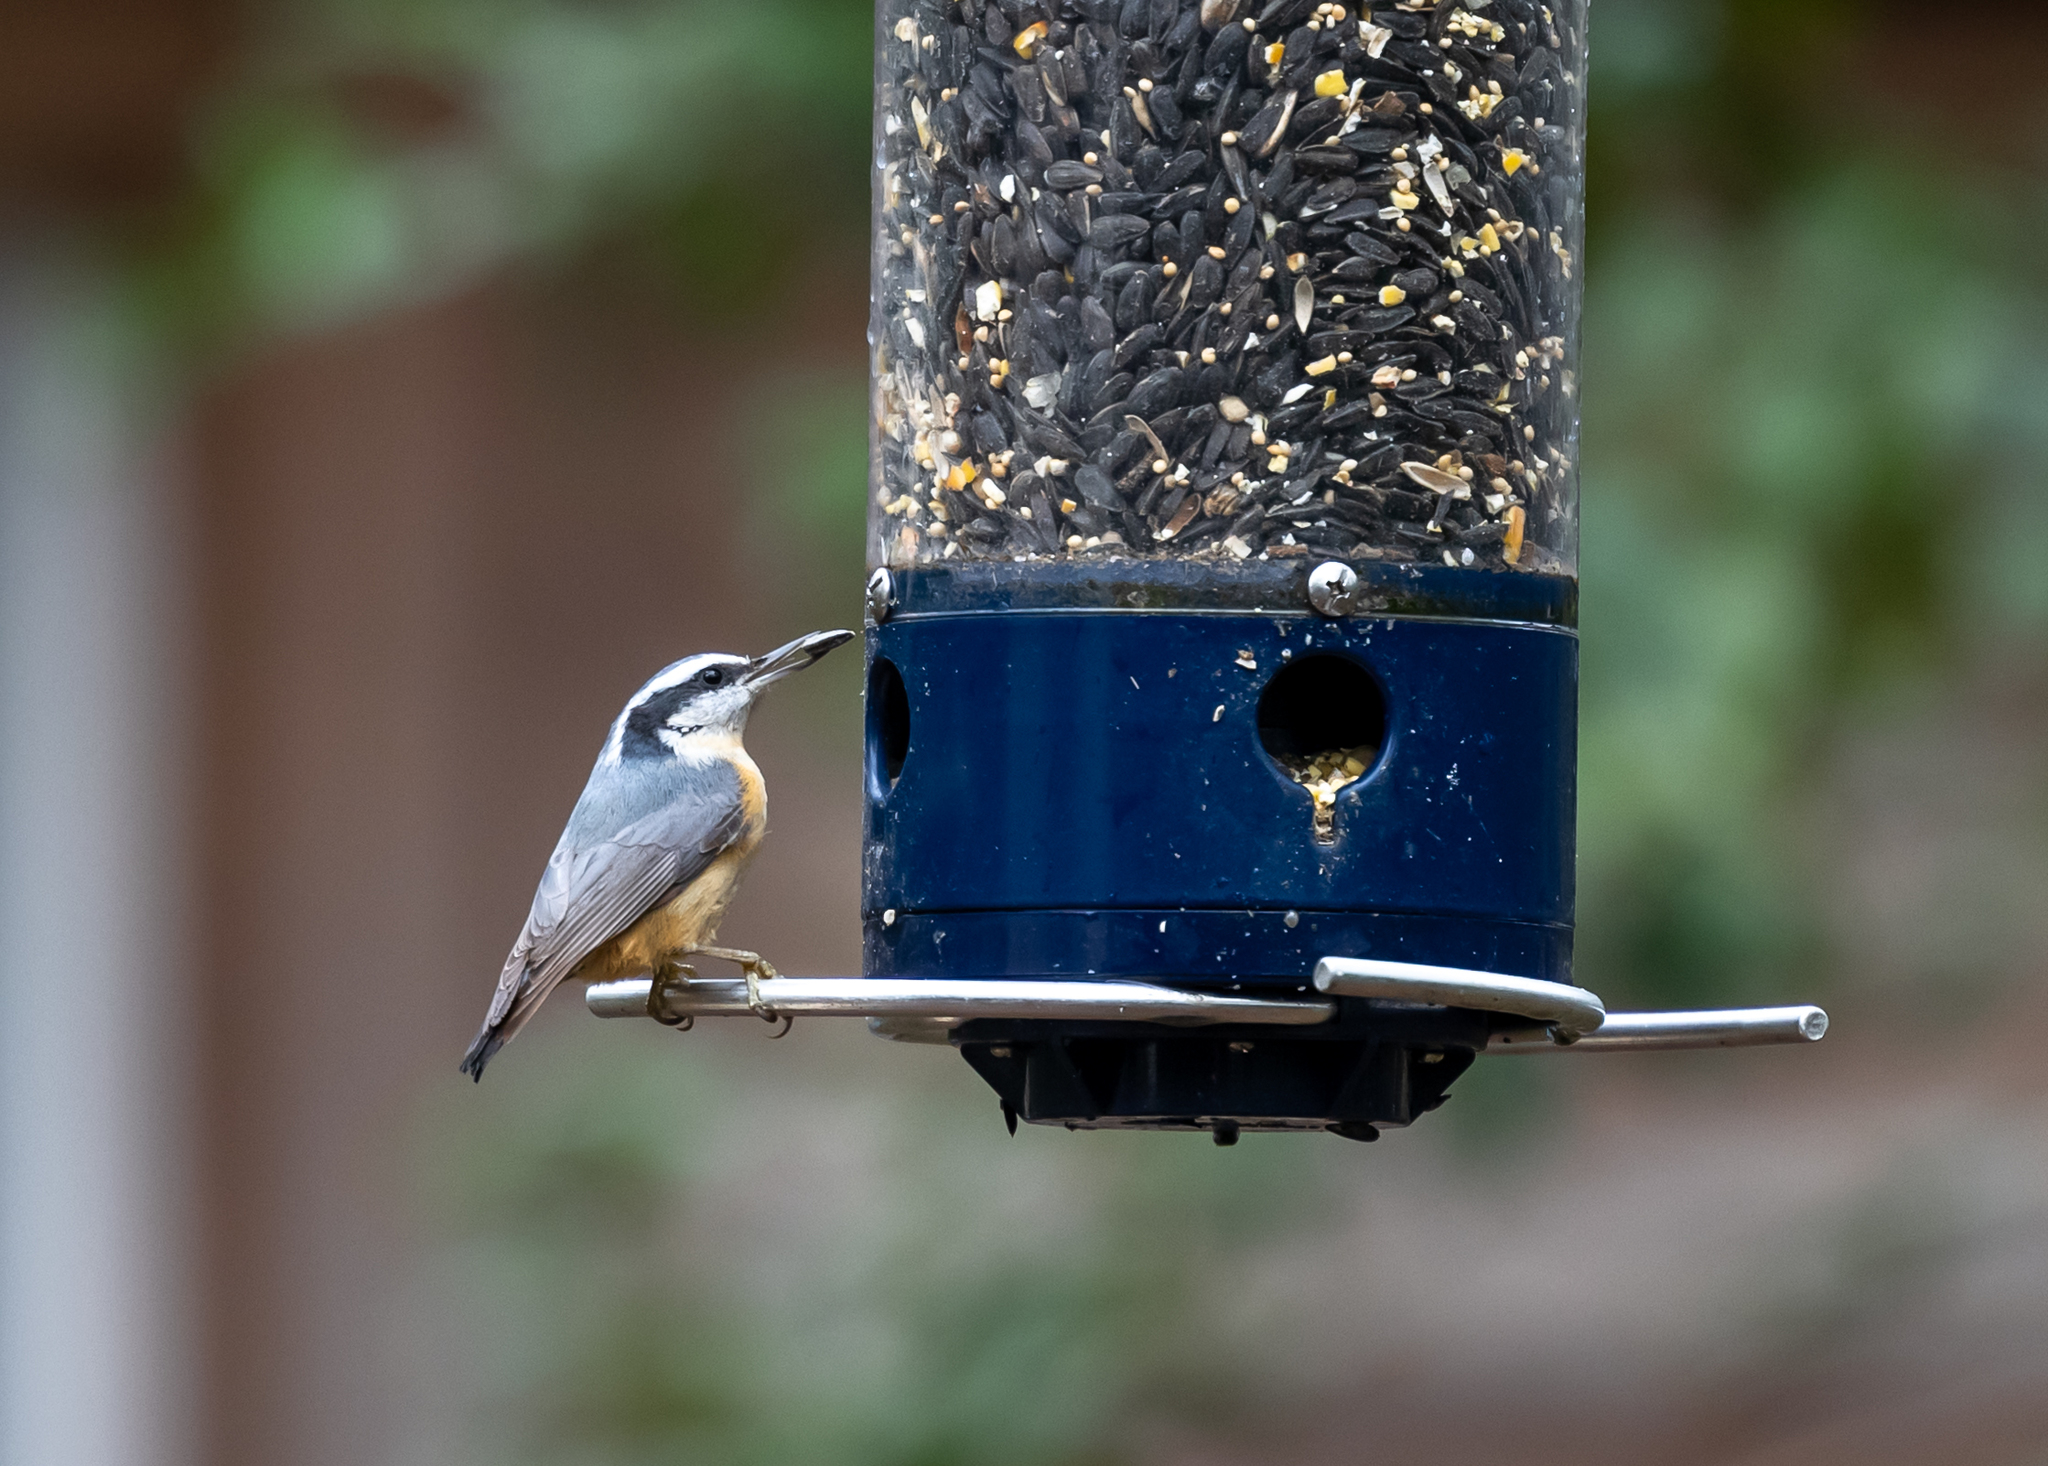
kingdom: Animalia
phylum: Chordata
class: Aves
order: Passeriformes
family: Sittidae
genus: Sitta
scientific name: Sitta canadensis
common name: Red-breasted nuthatch
